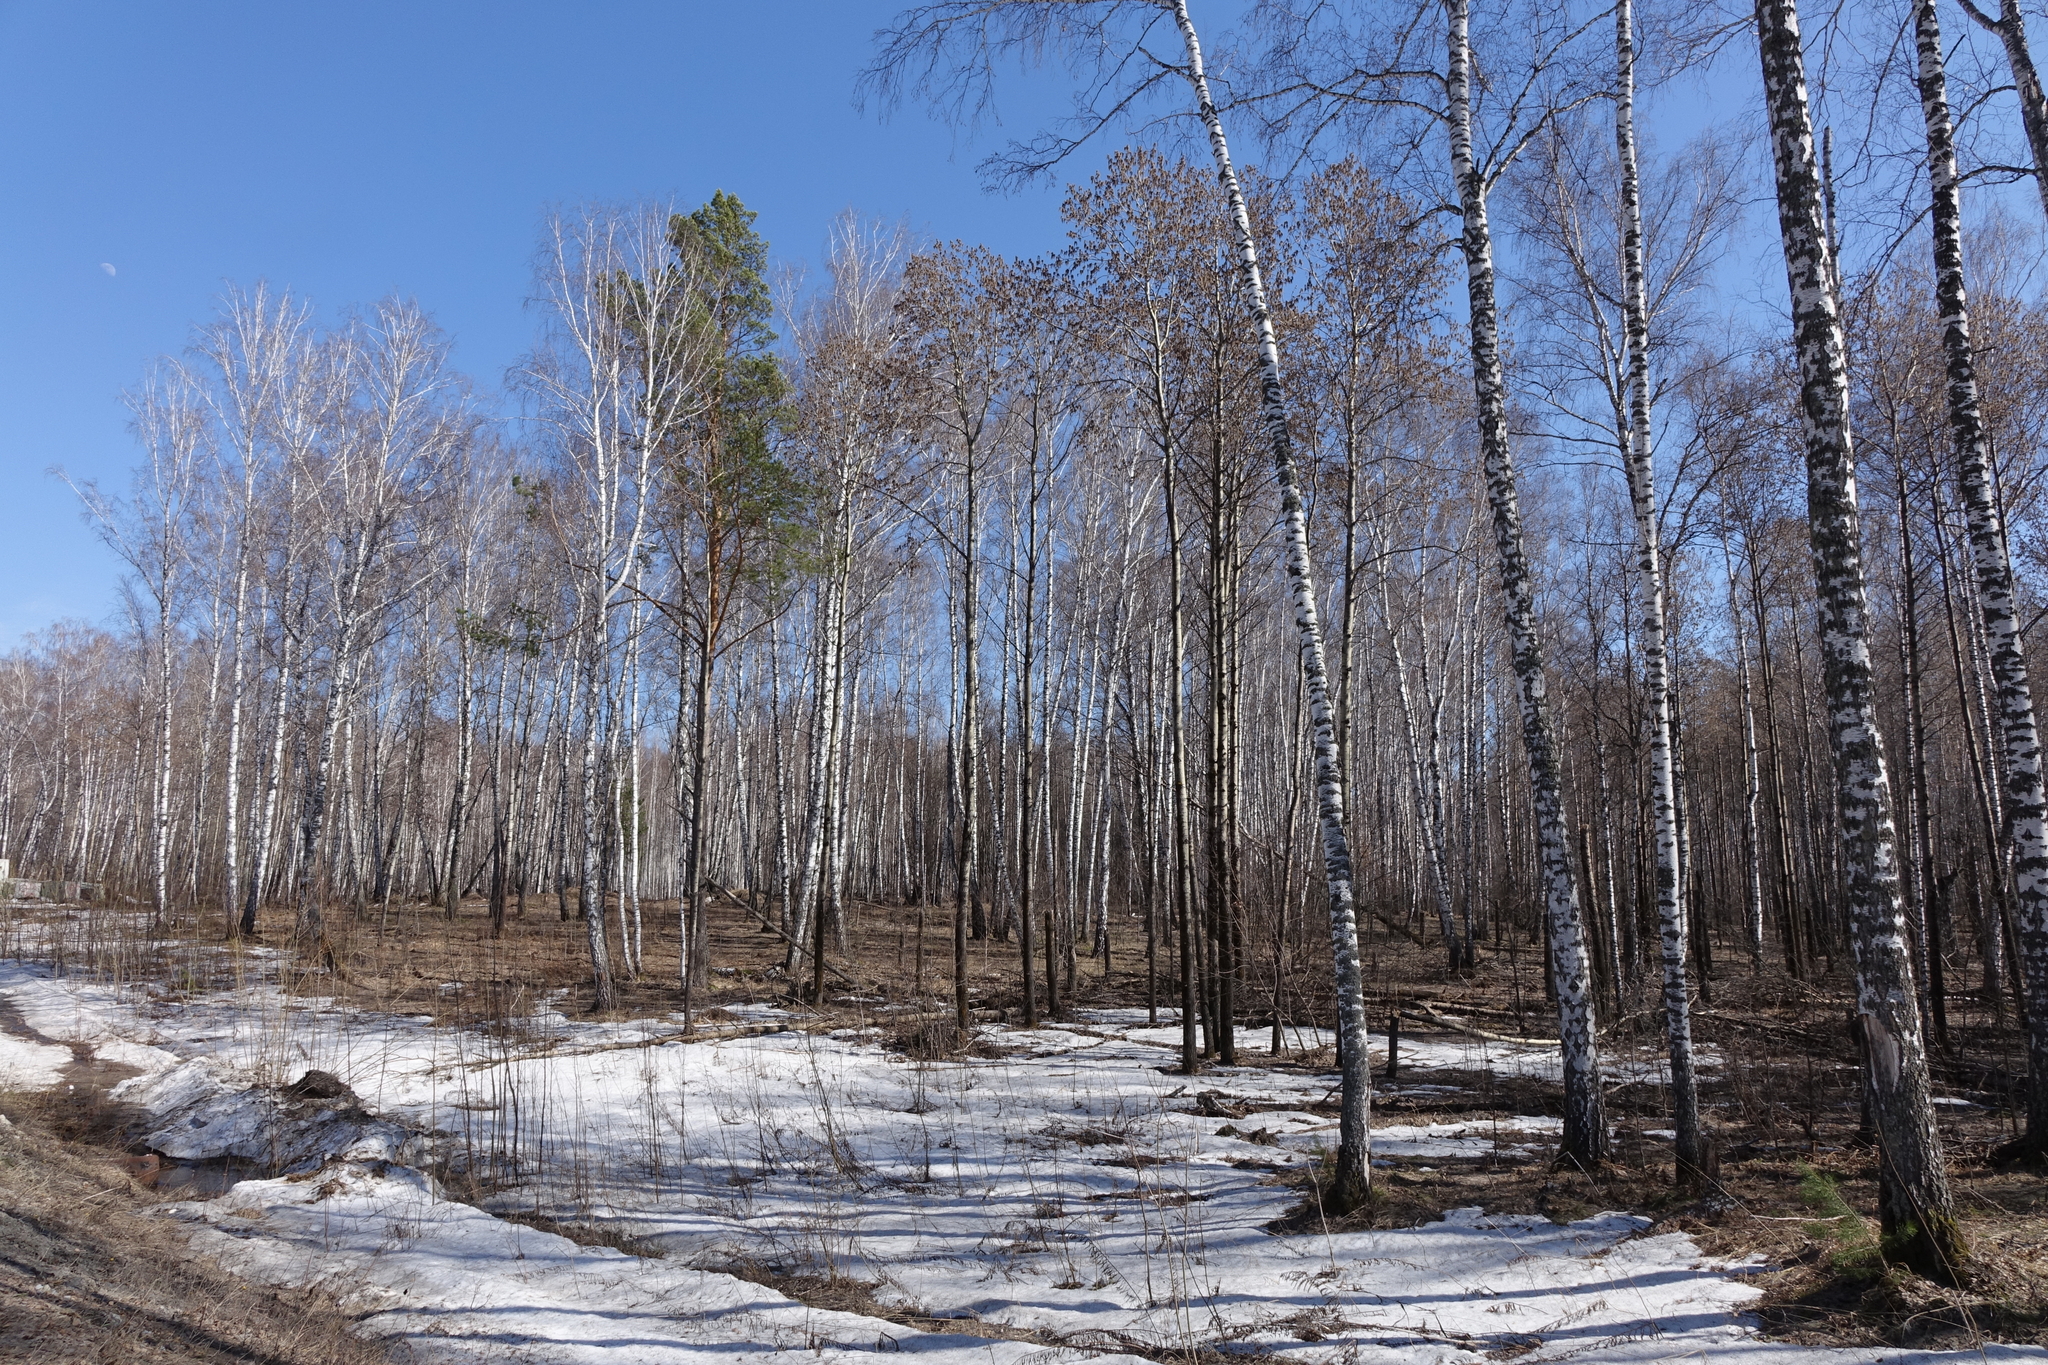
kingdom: Plantae
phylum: Tracheophyta
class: Pinopsida
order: Pinales
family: Pinaceae
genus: Pinus
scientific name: Pinus sylvestris
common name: Scots pine
